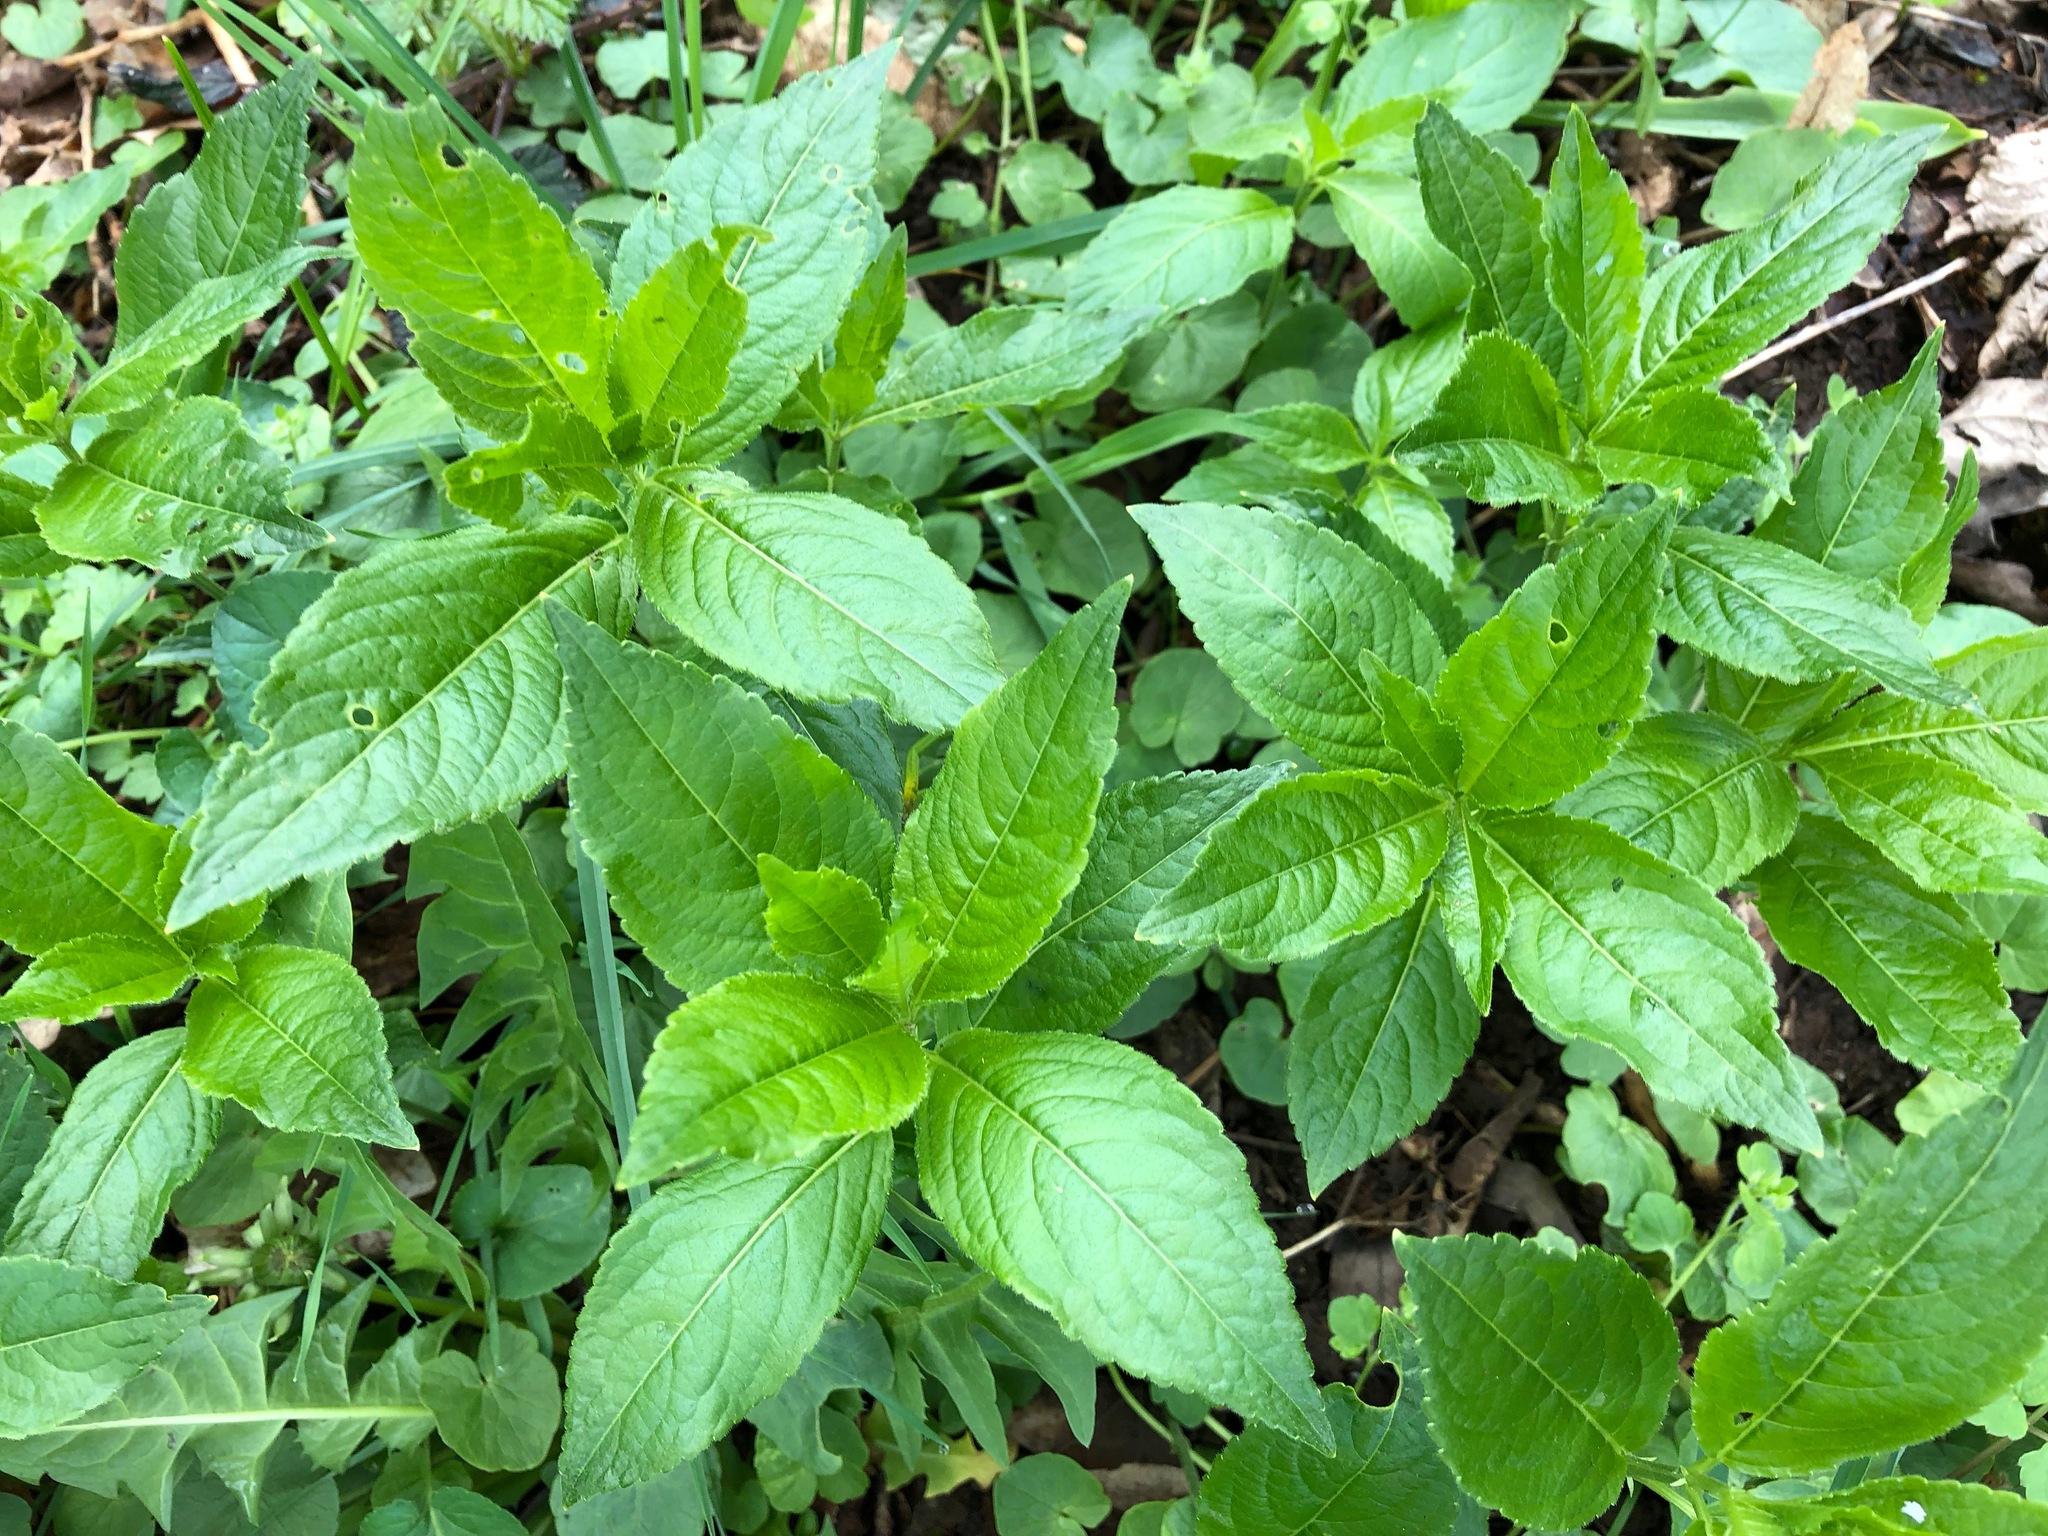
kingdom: Plantae
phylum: Tracheophyta
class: Magnoliopsida
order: Malpighiales
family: Euphorbiaceae
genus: Mercurialis
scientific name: Mercurialis perennis
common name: Dog mercury
